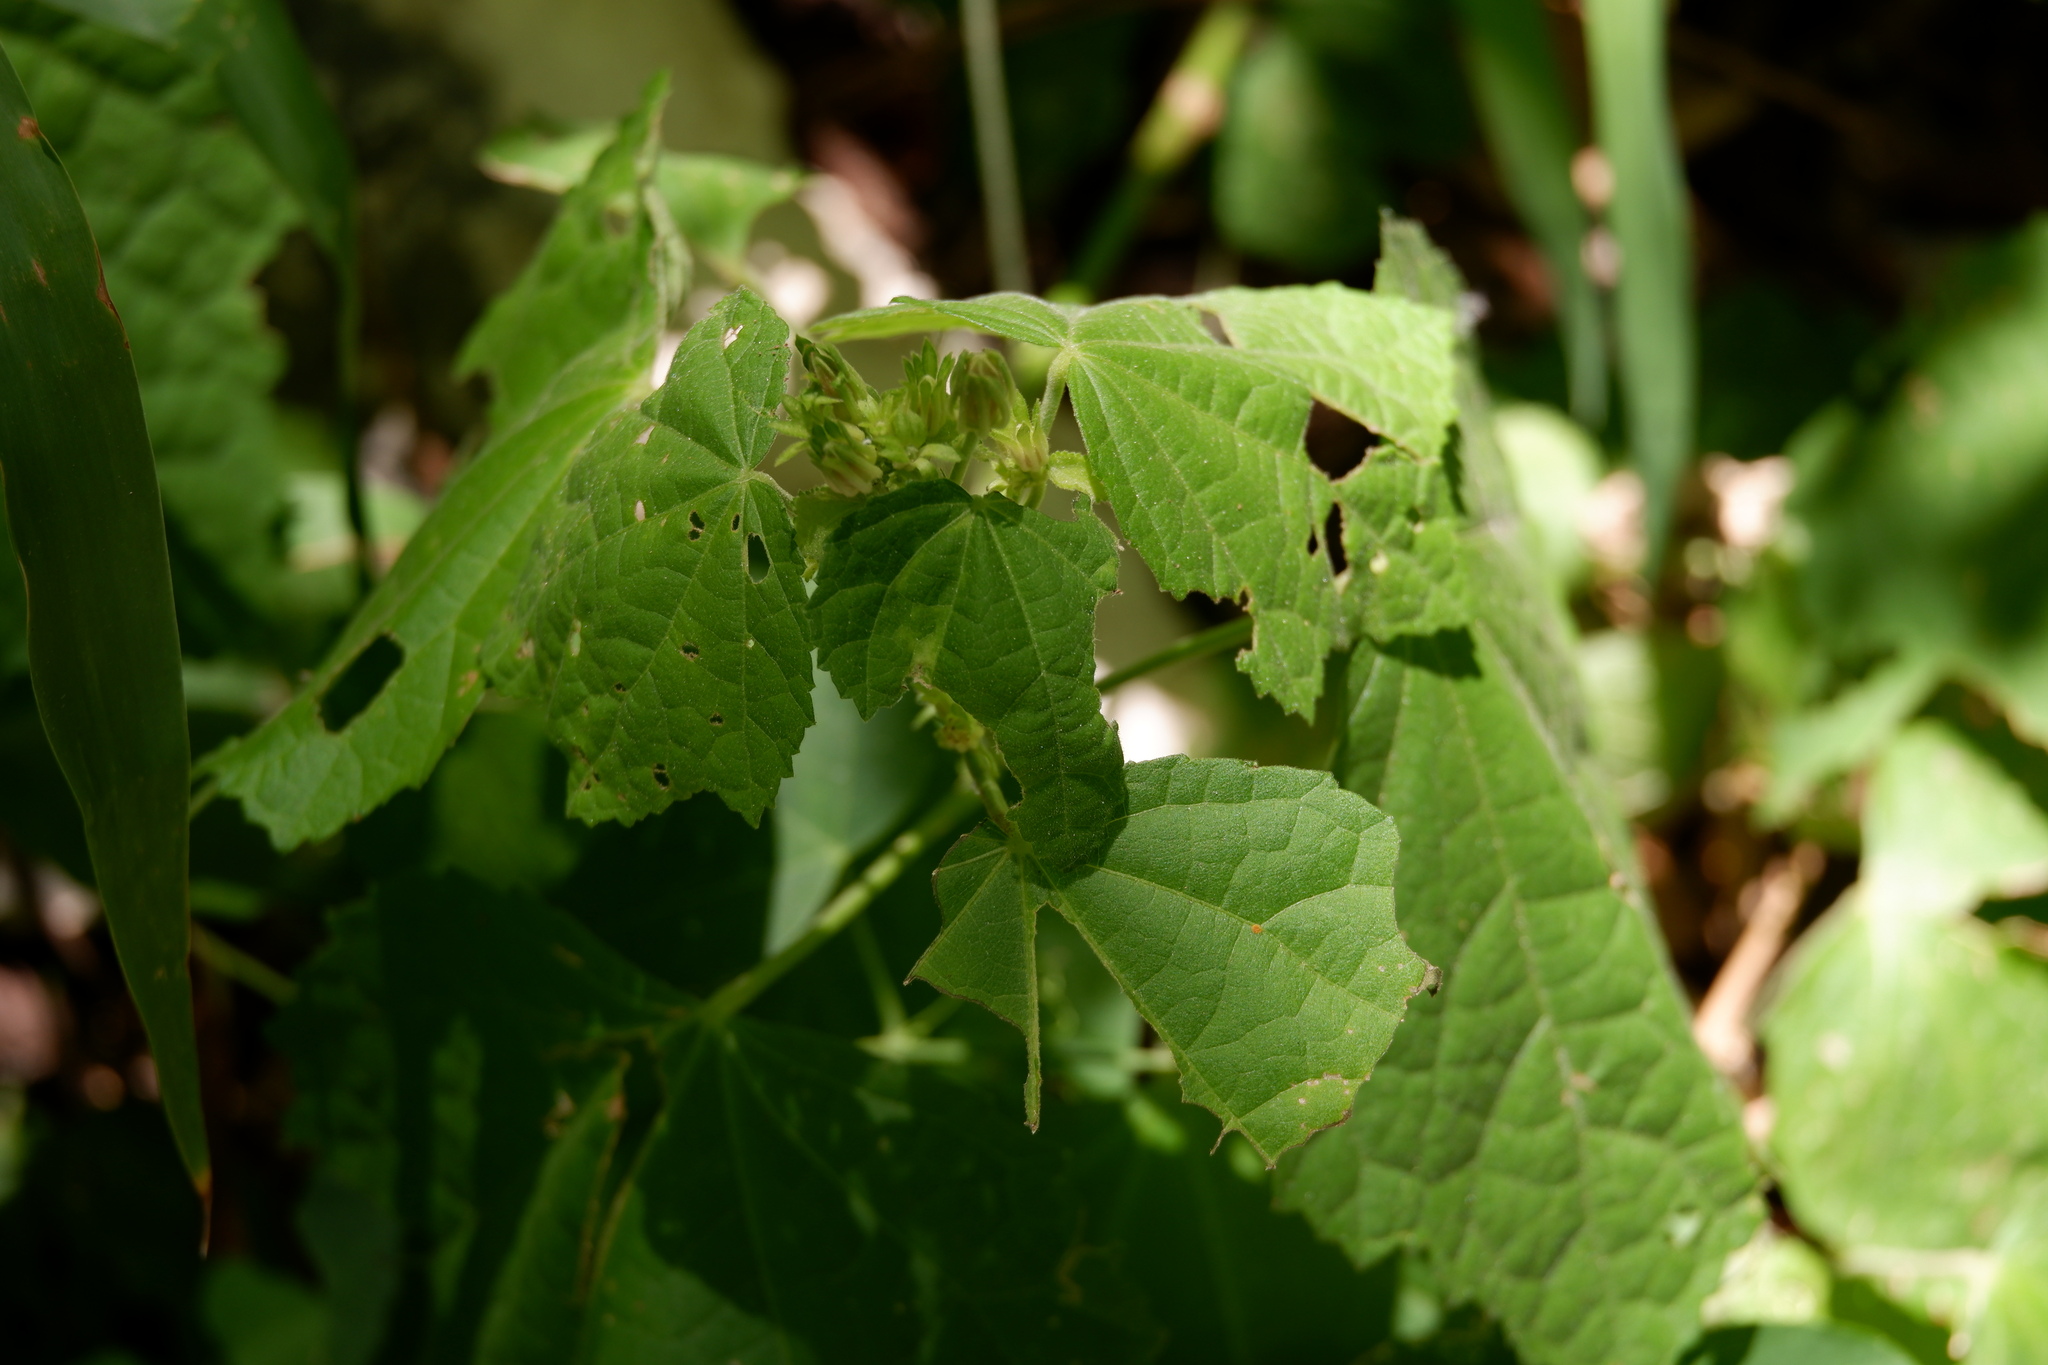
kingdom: Plantae
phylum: Tracheophyta
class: Magnoliopsida
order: Malvales
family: Malvaceae
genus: Malvaviscus
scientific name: Malvaviscus arboreus
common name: Wax mallow
